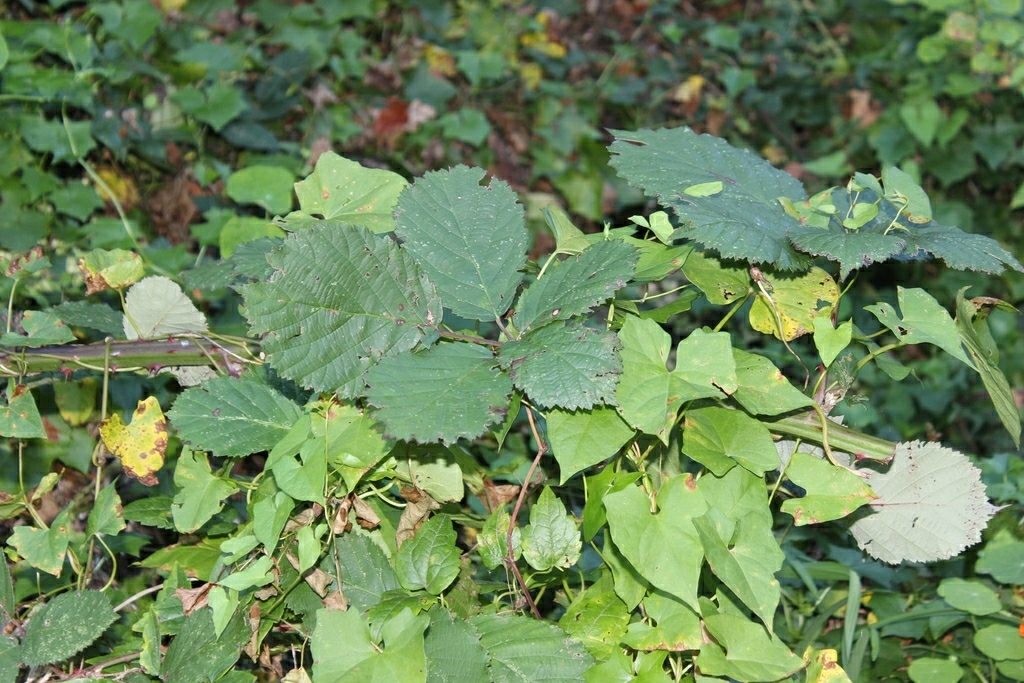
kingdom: Plantae
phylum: Tracheophyta
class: Magnoliopsida
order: Solanales
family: Convolvulaceae
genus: Calystegia
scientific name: Calystegia silvatica
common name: Large bindweed
